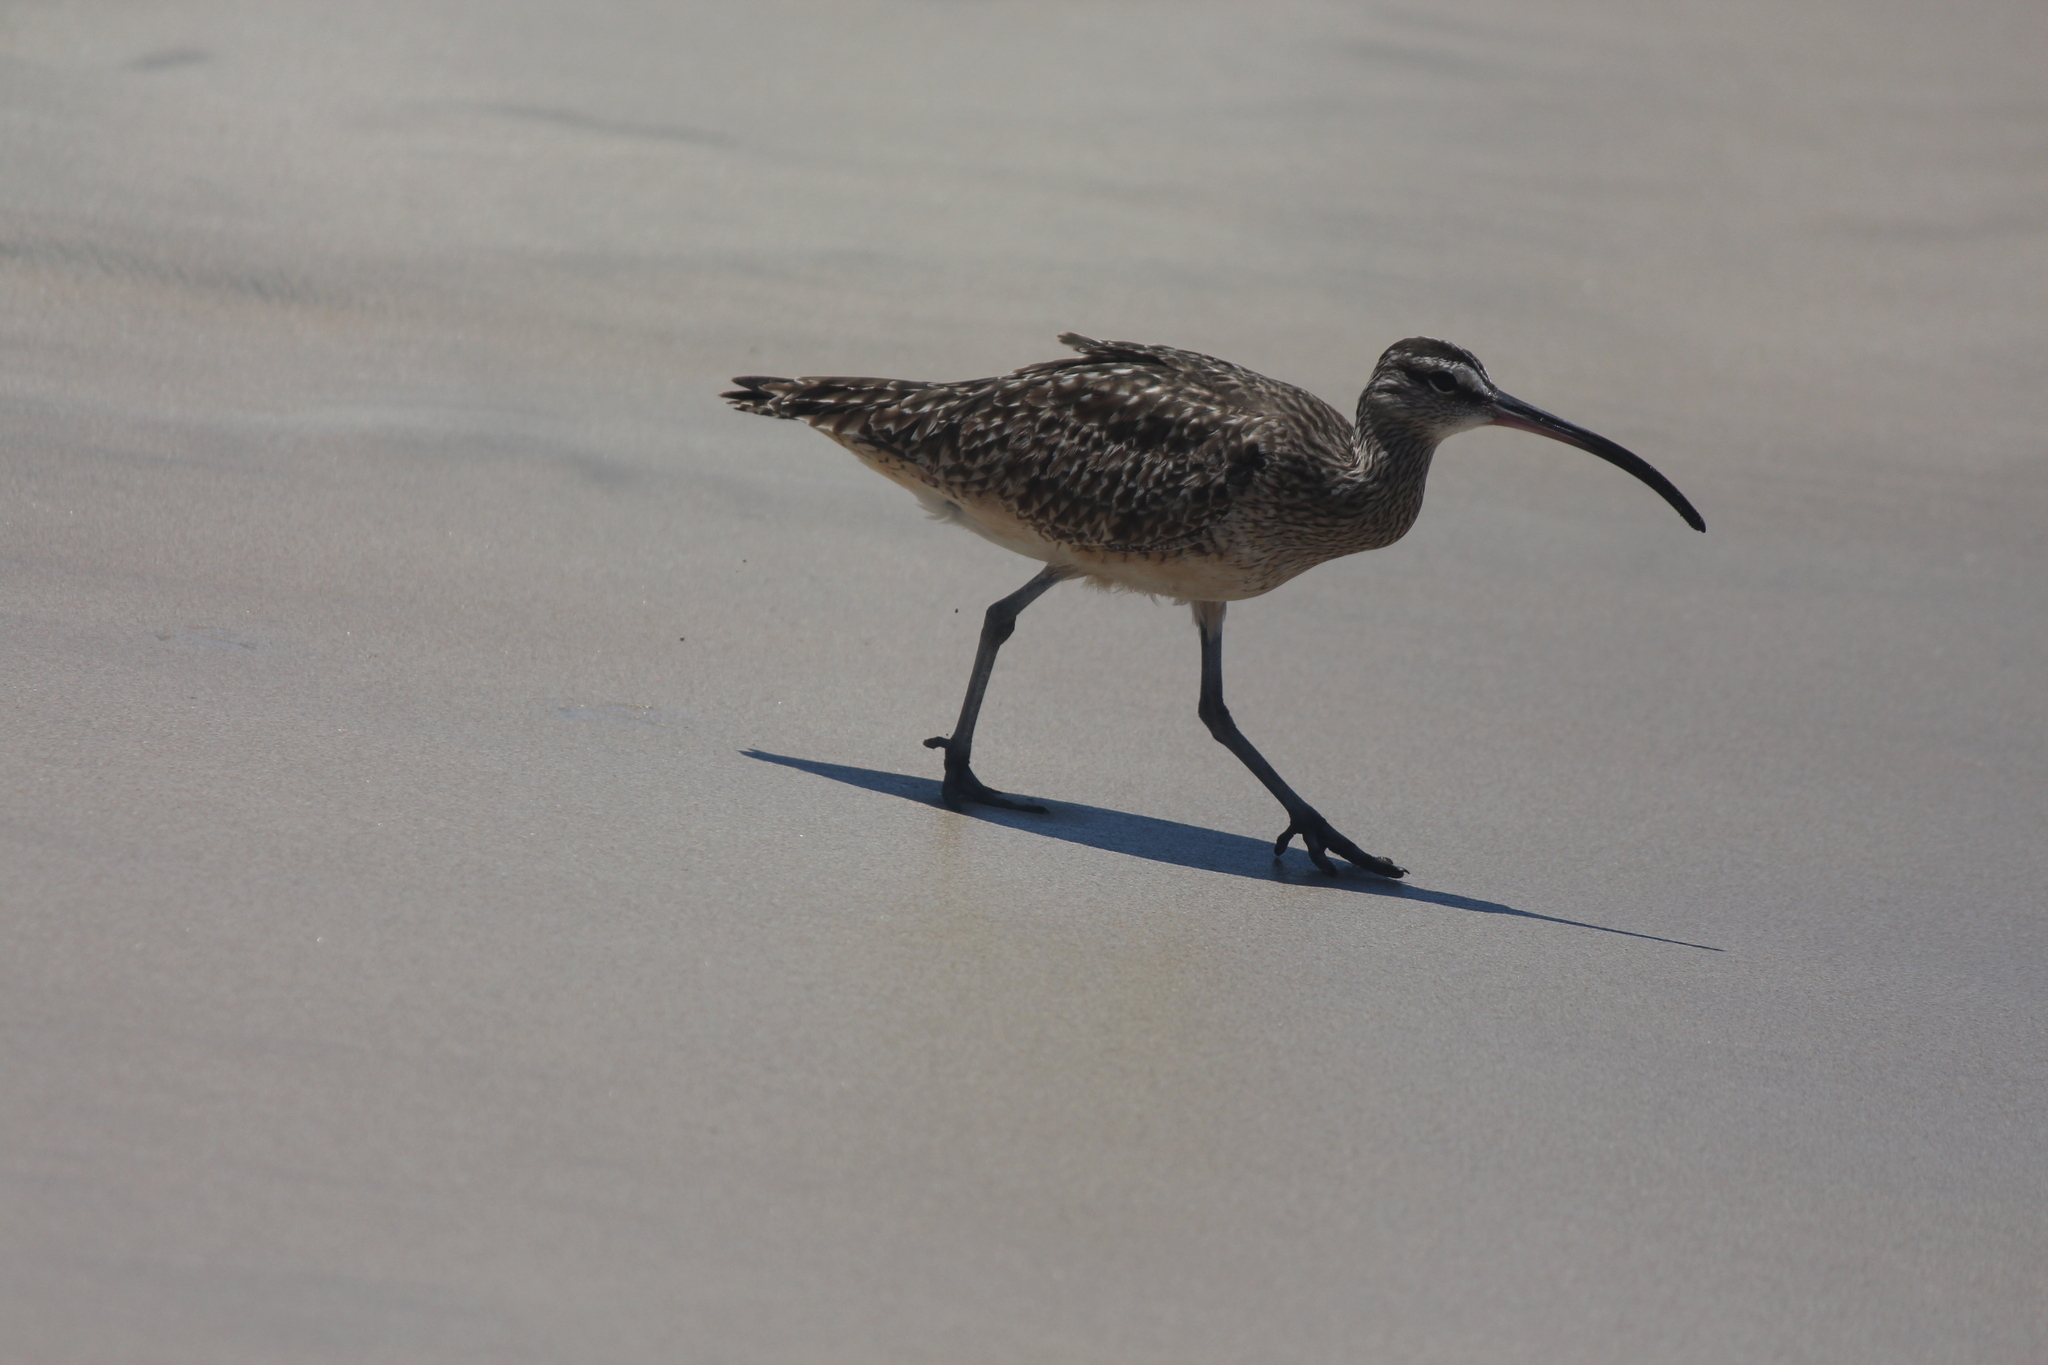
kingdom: Animalia
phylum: Chordata
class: Aves
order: Charadriiformes
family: Scolopacidae
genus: Numenius
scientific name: Numenius phaeopus
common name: Whimbrel
